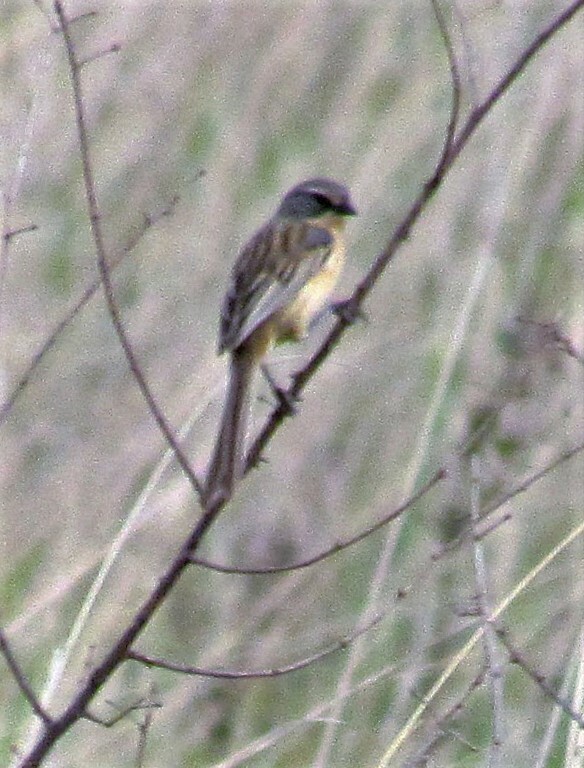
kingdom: Animalia
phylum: Chordata
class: Aves
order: Passeriformes
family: Thraupidae
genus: Donacospiza
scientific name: Donacospiza albifrons
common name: Long-tailed reed finch
